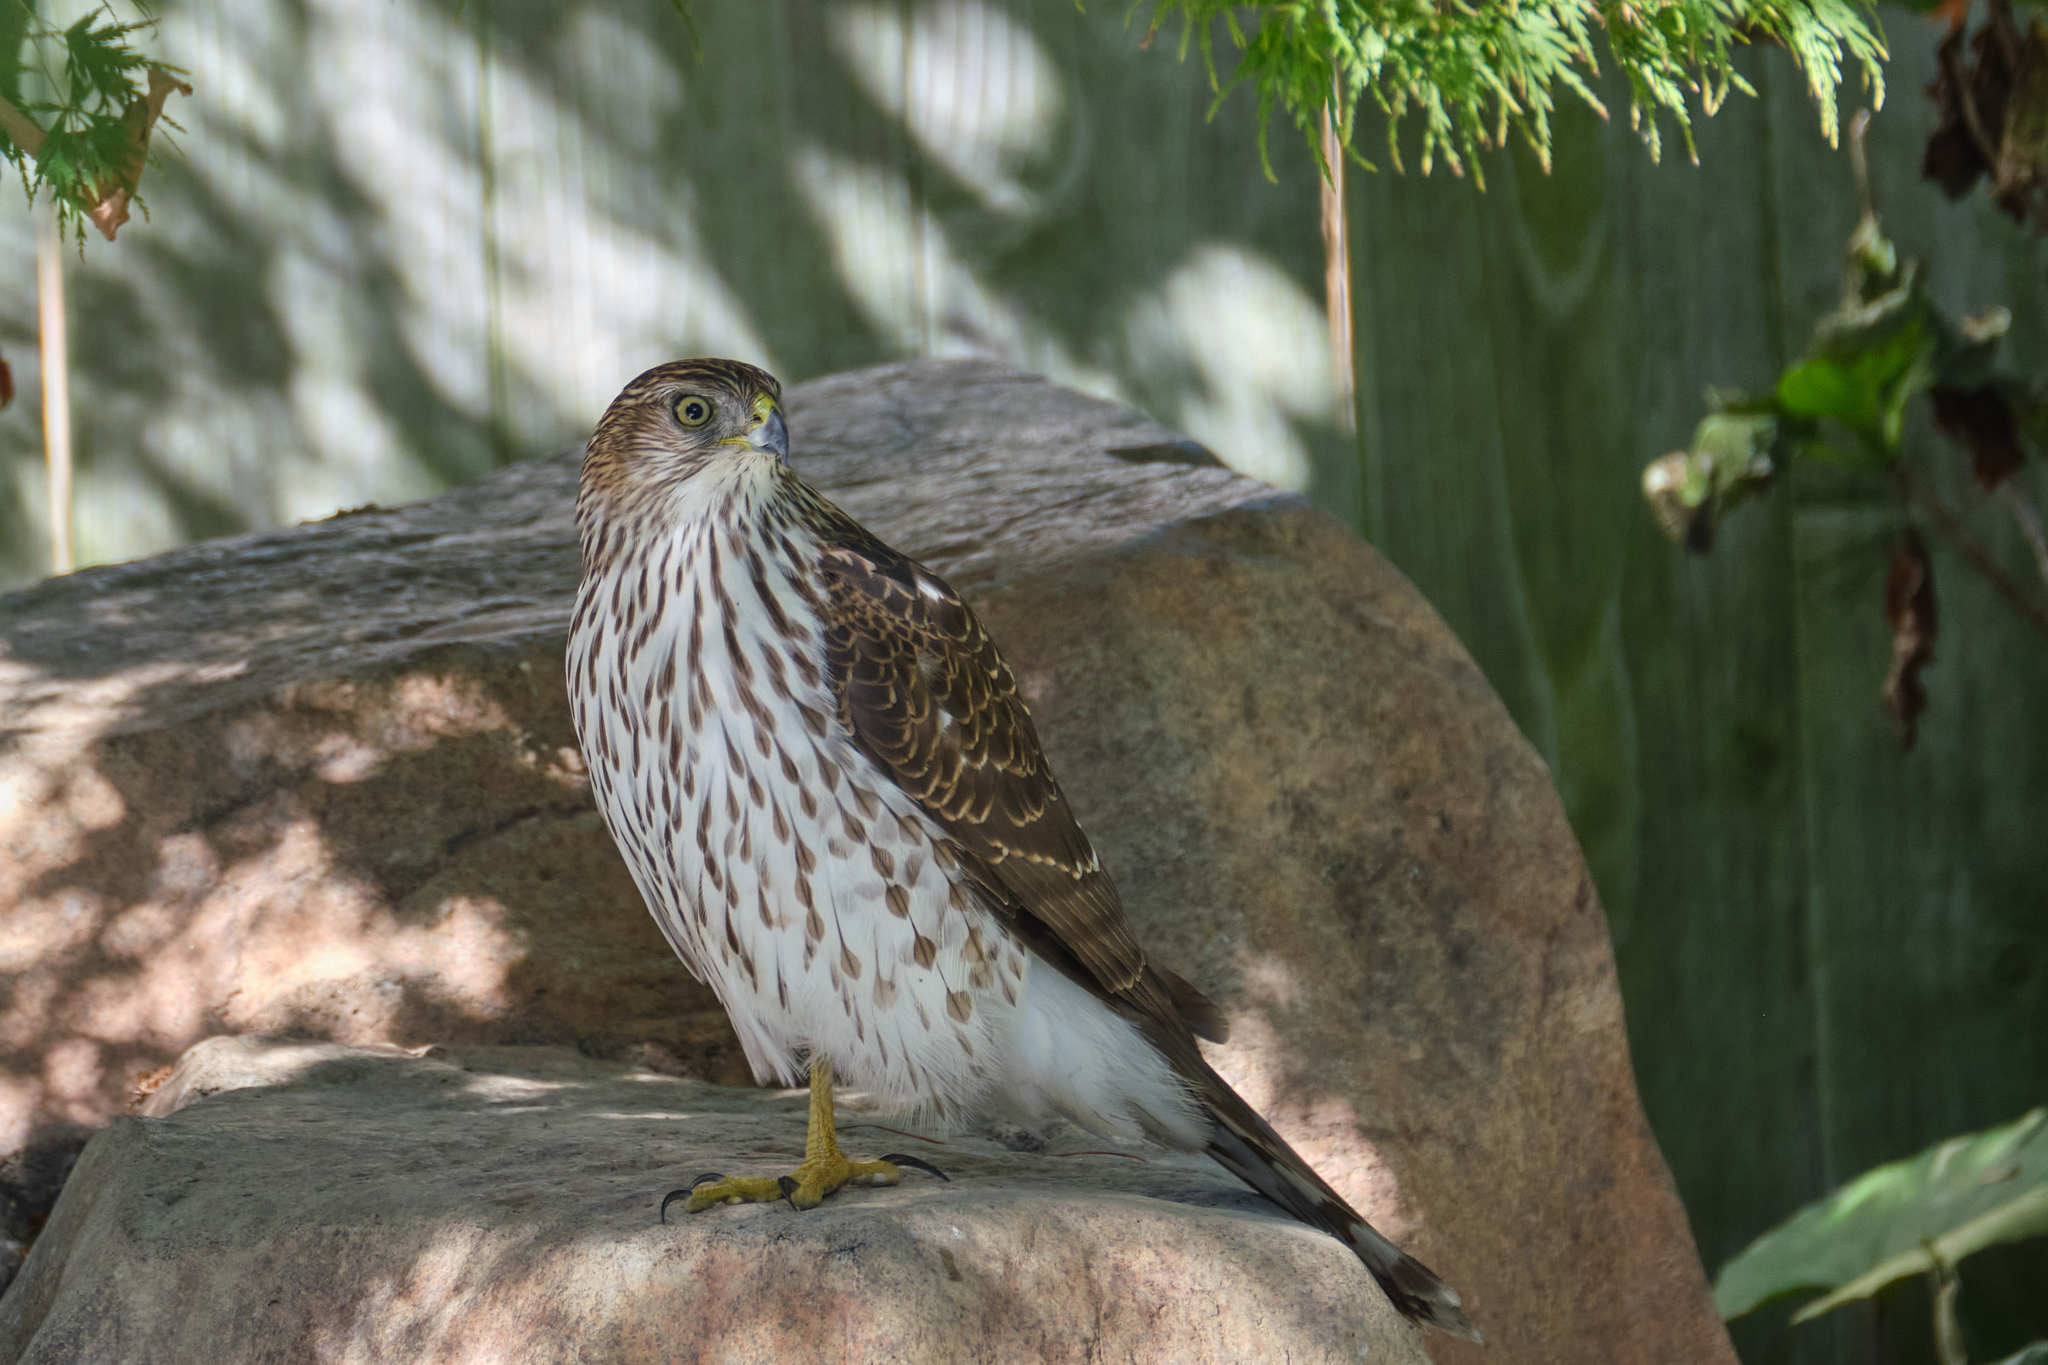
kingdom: Animalia
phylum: Chordata
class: Aves
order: Accipitriformes
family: Accipitridae
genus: Accipiter
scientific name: Accipiter cooperii
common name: Cooper's hawk
